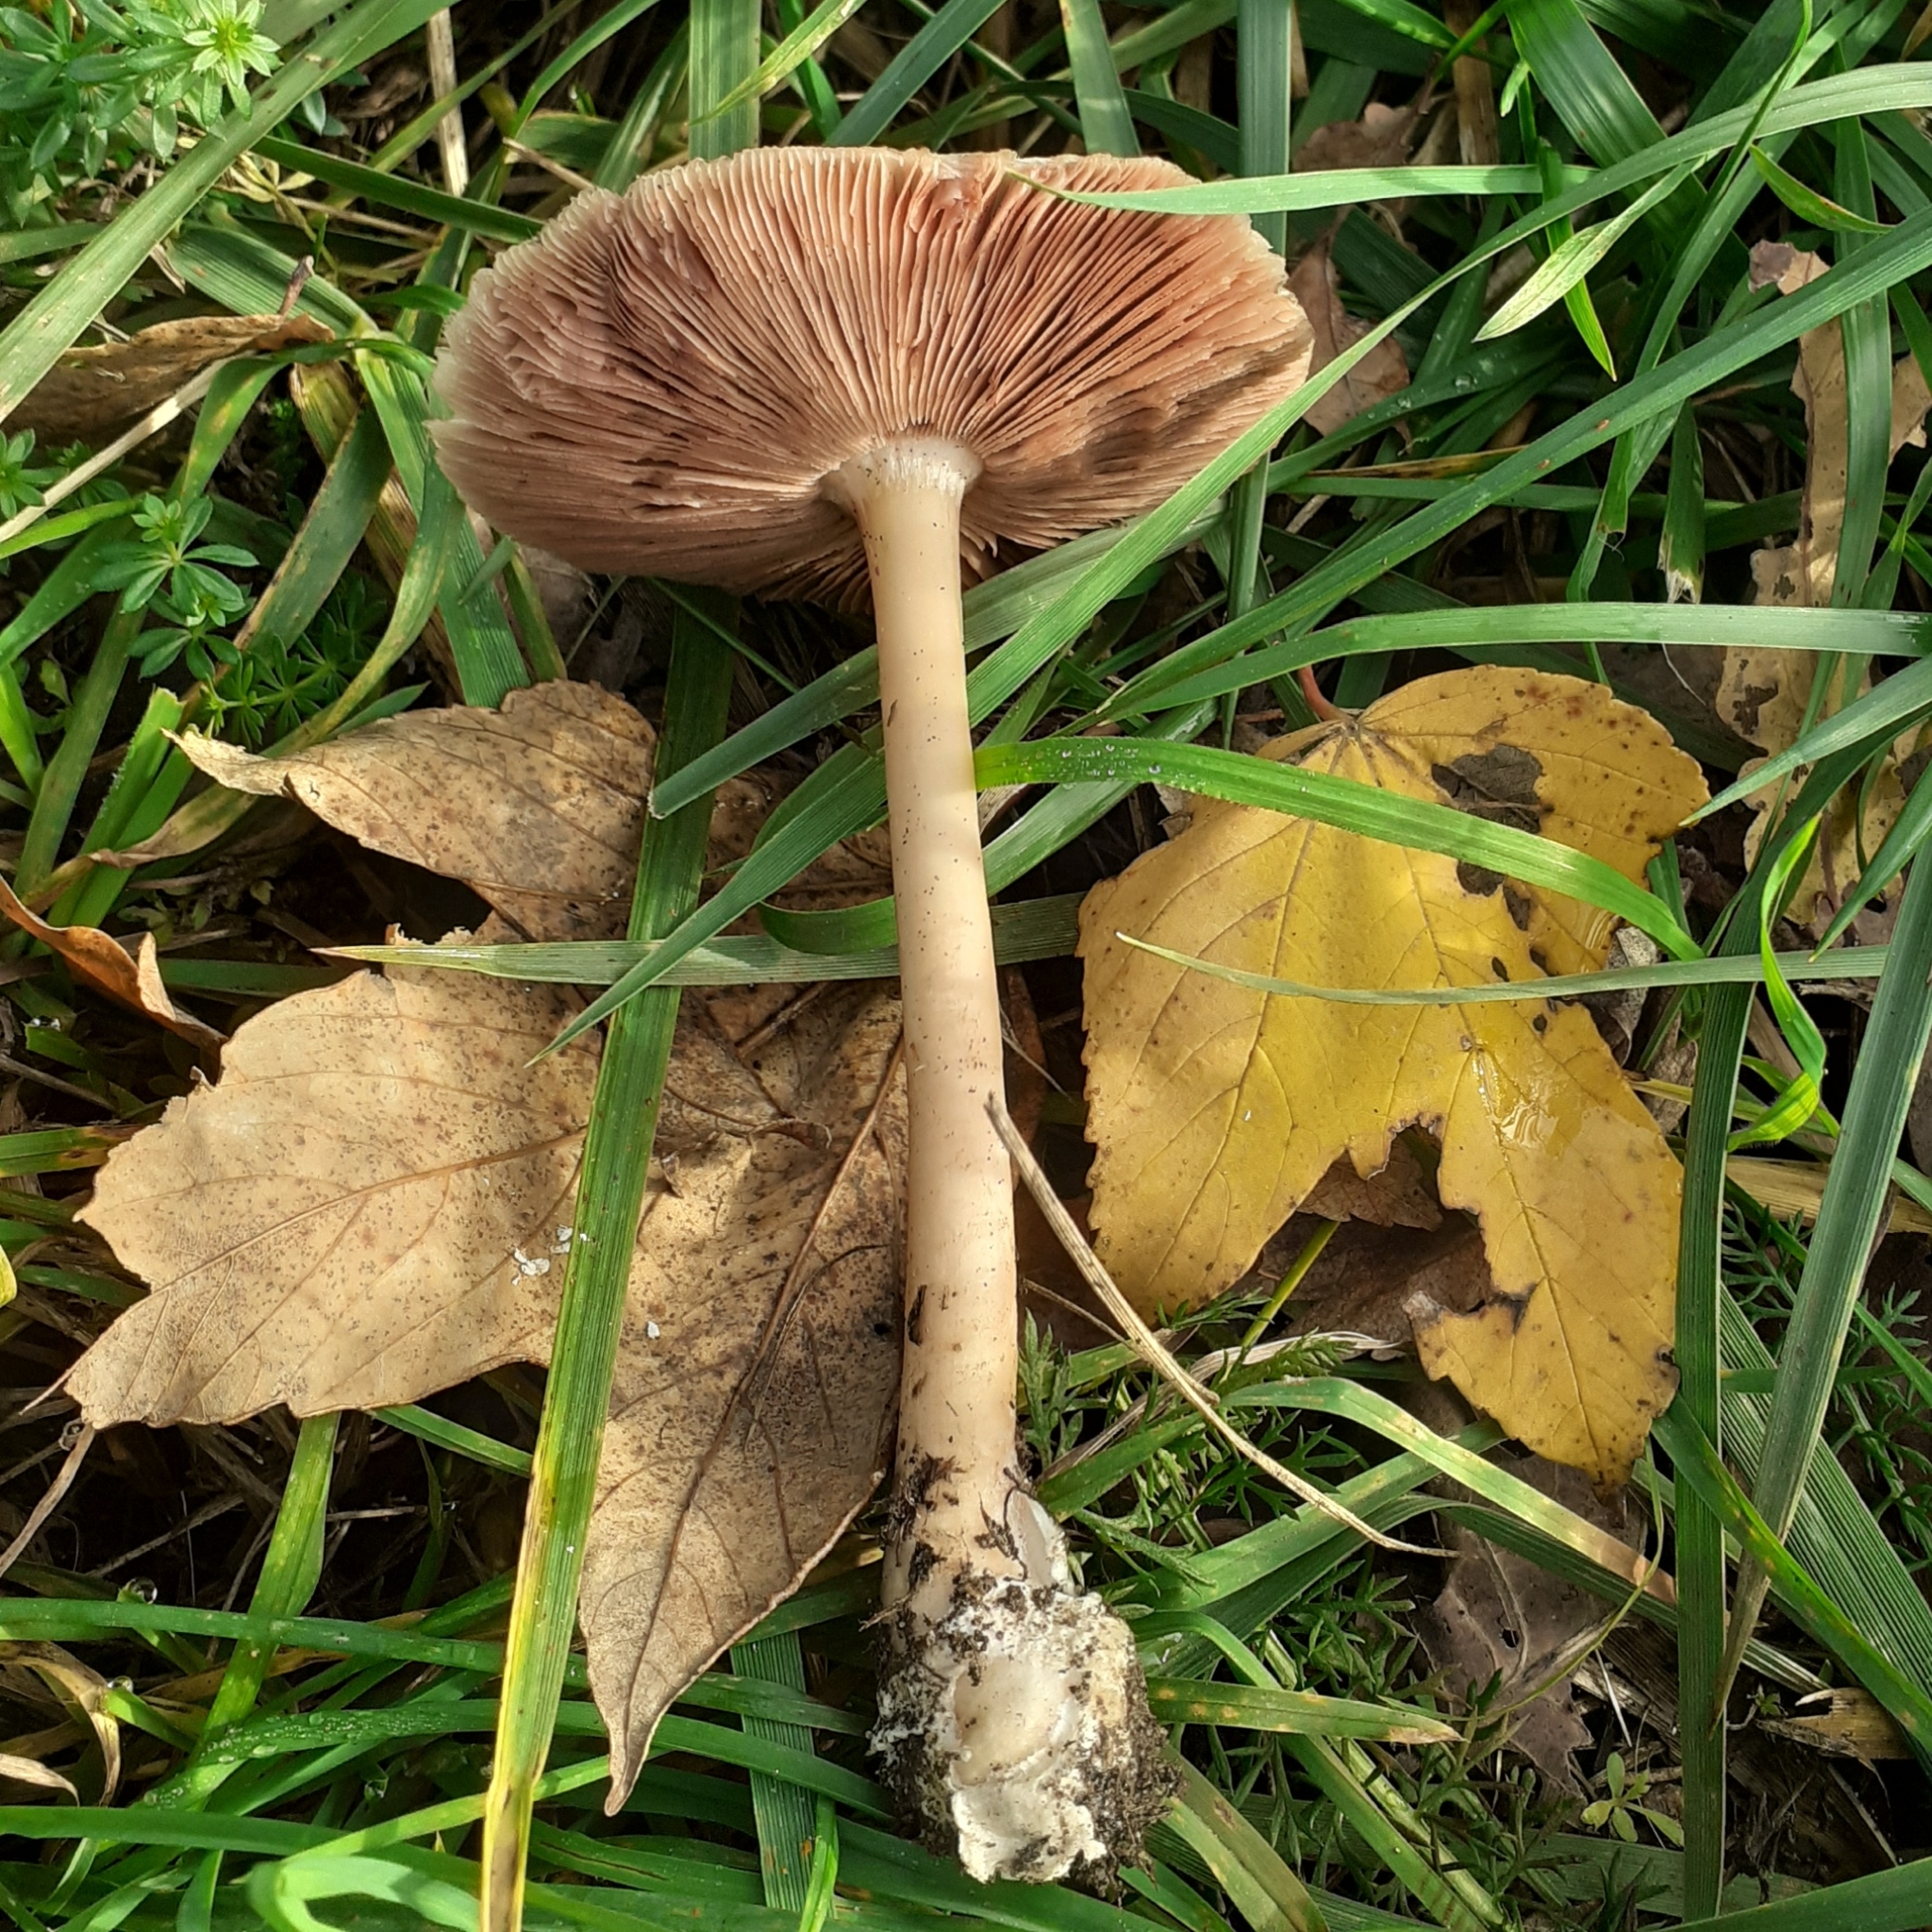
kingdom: Fungi
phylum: Basidiomycota
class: Agaricomycetes
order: Agaricales
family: Pluteaceae
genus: Volvopluteus
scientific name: Volvopluteus gloiocephalus
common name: Stubble rosegill
